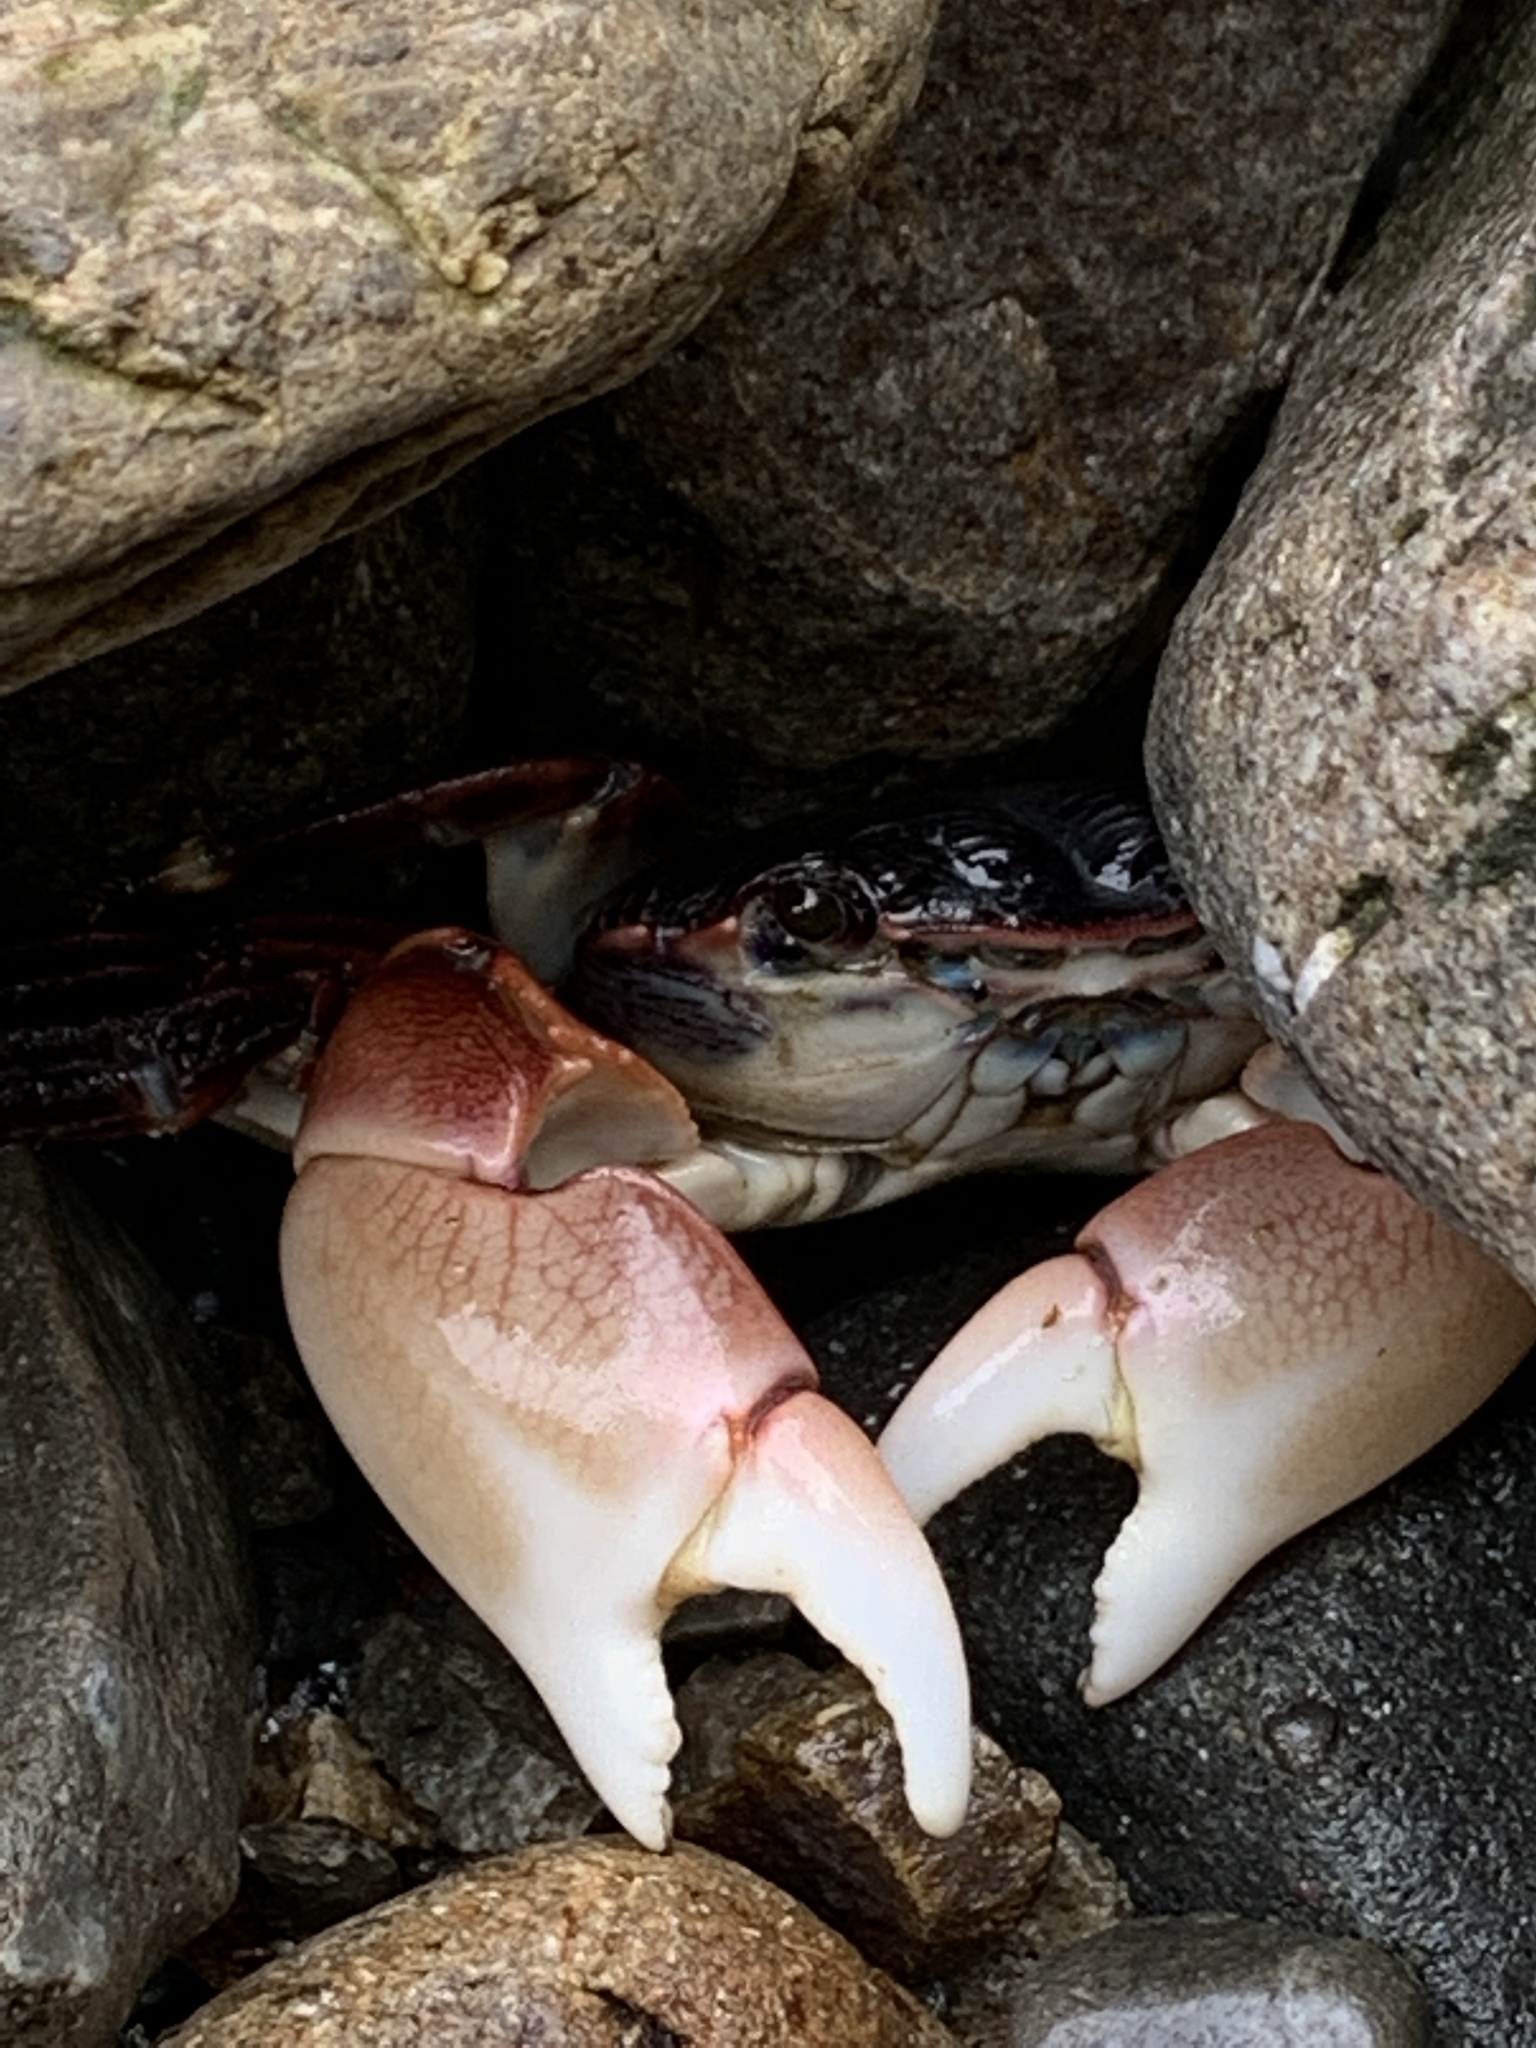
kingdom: Animalia
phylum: Arthropoda
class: Malacostraca
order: Decapoda
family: Grapsidae
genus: Pachygrapsus
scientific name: Pachygrapsus crassipes
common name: Striped shore crab
